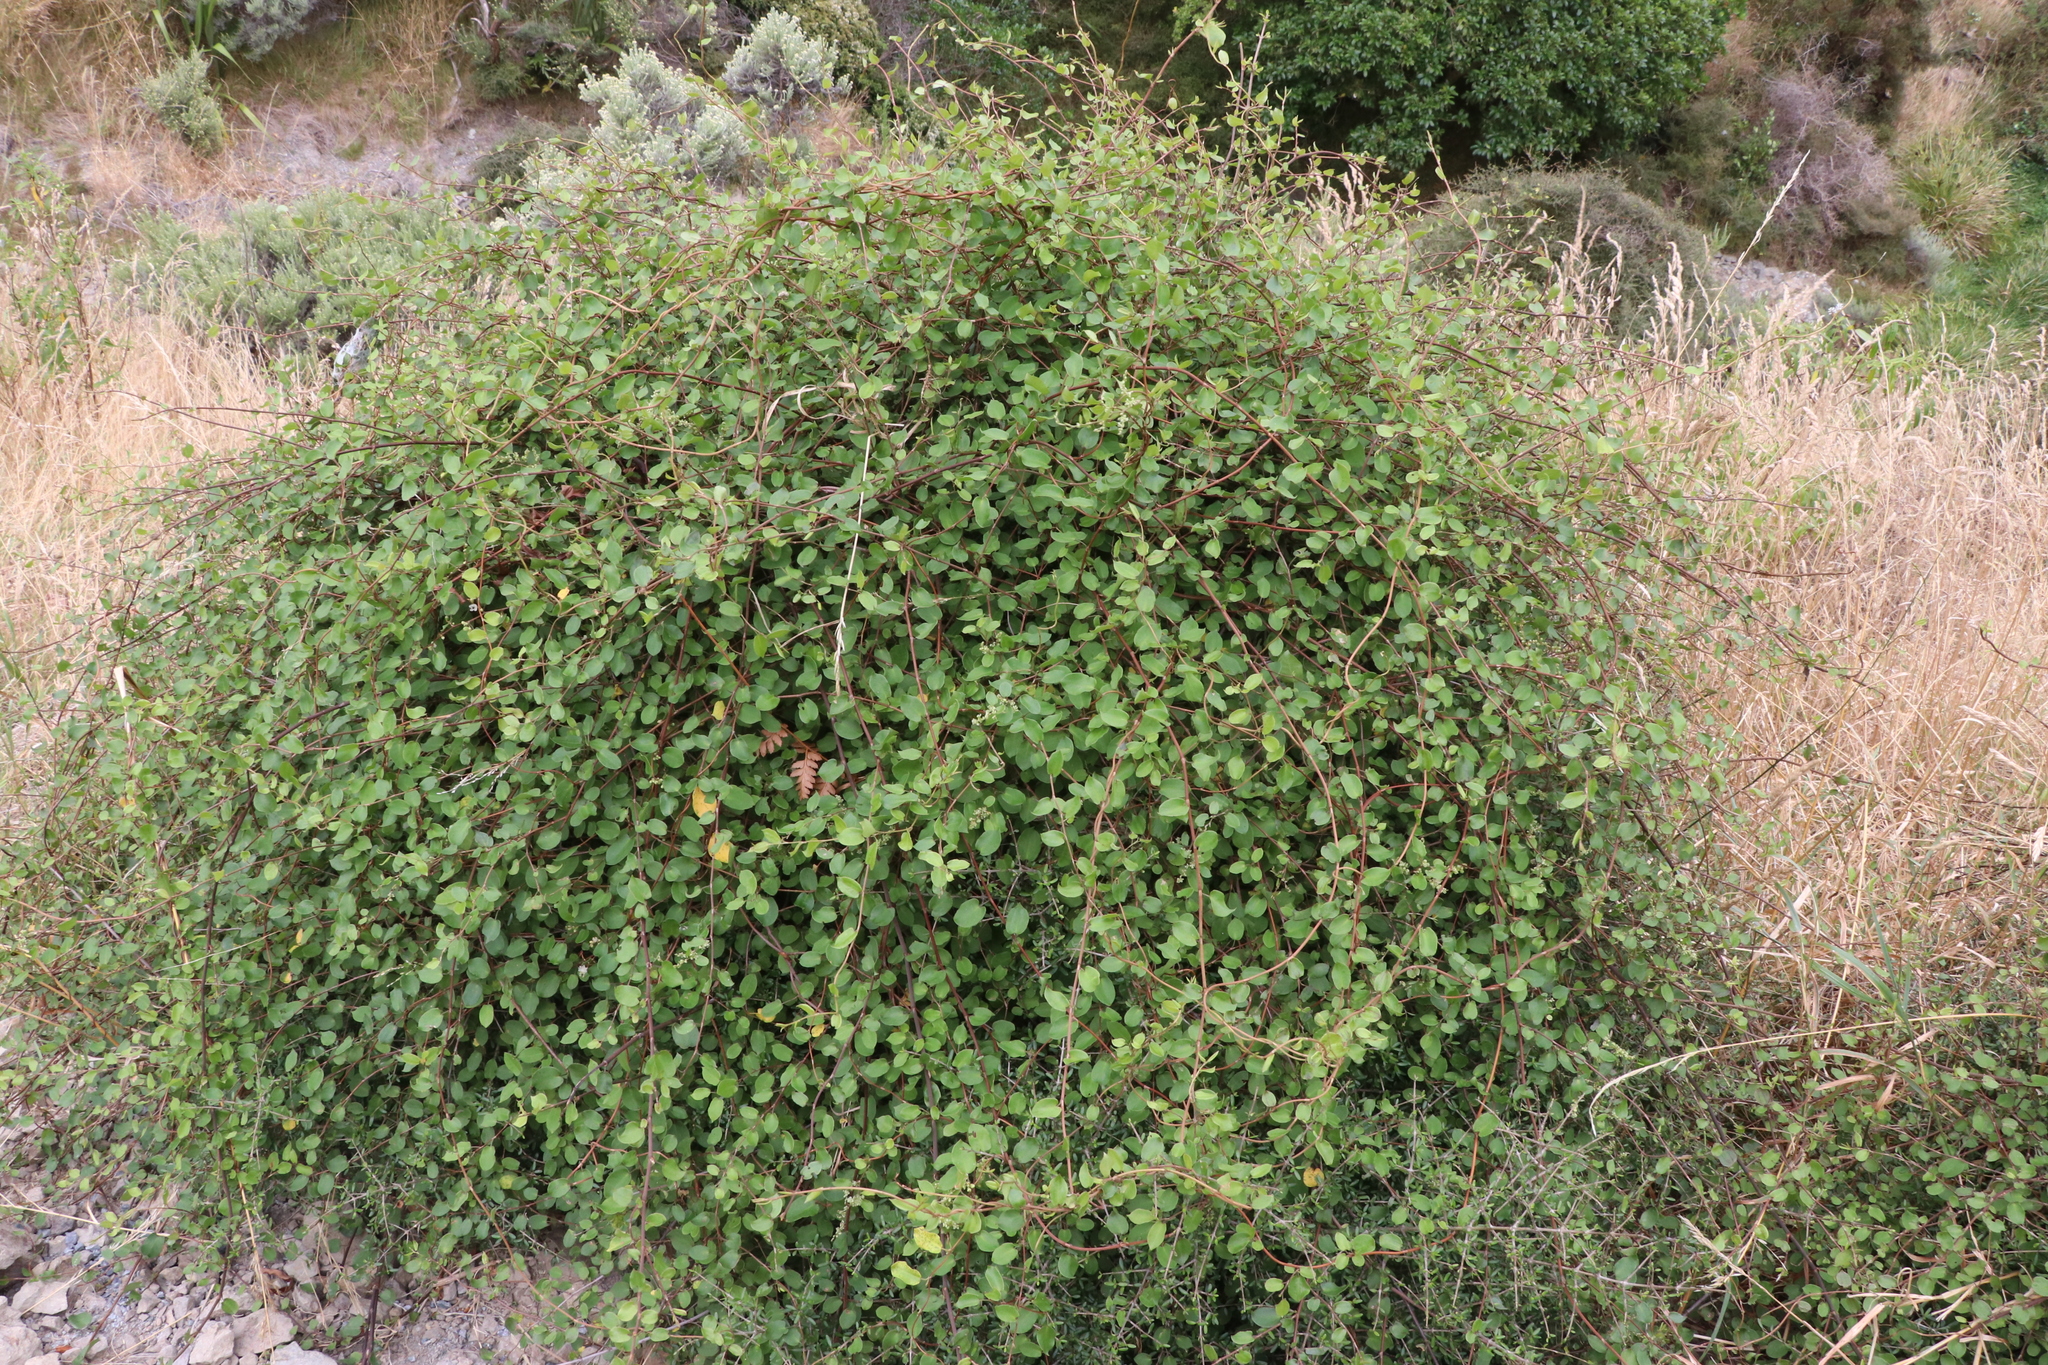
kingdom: Plantae
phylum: Tracheophyta
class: Magnoliopsida
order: Caryophyllales
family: Polygonaceae
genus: Muehlenbeckia
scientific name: Muehlenbeckia australis
